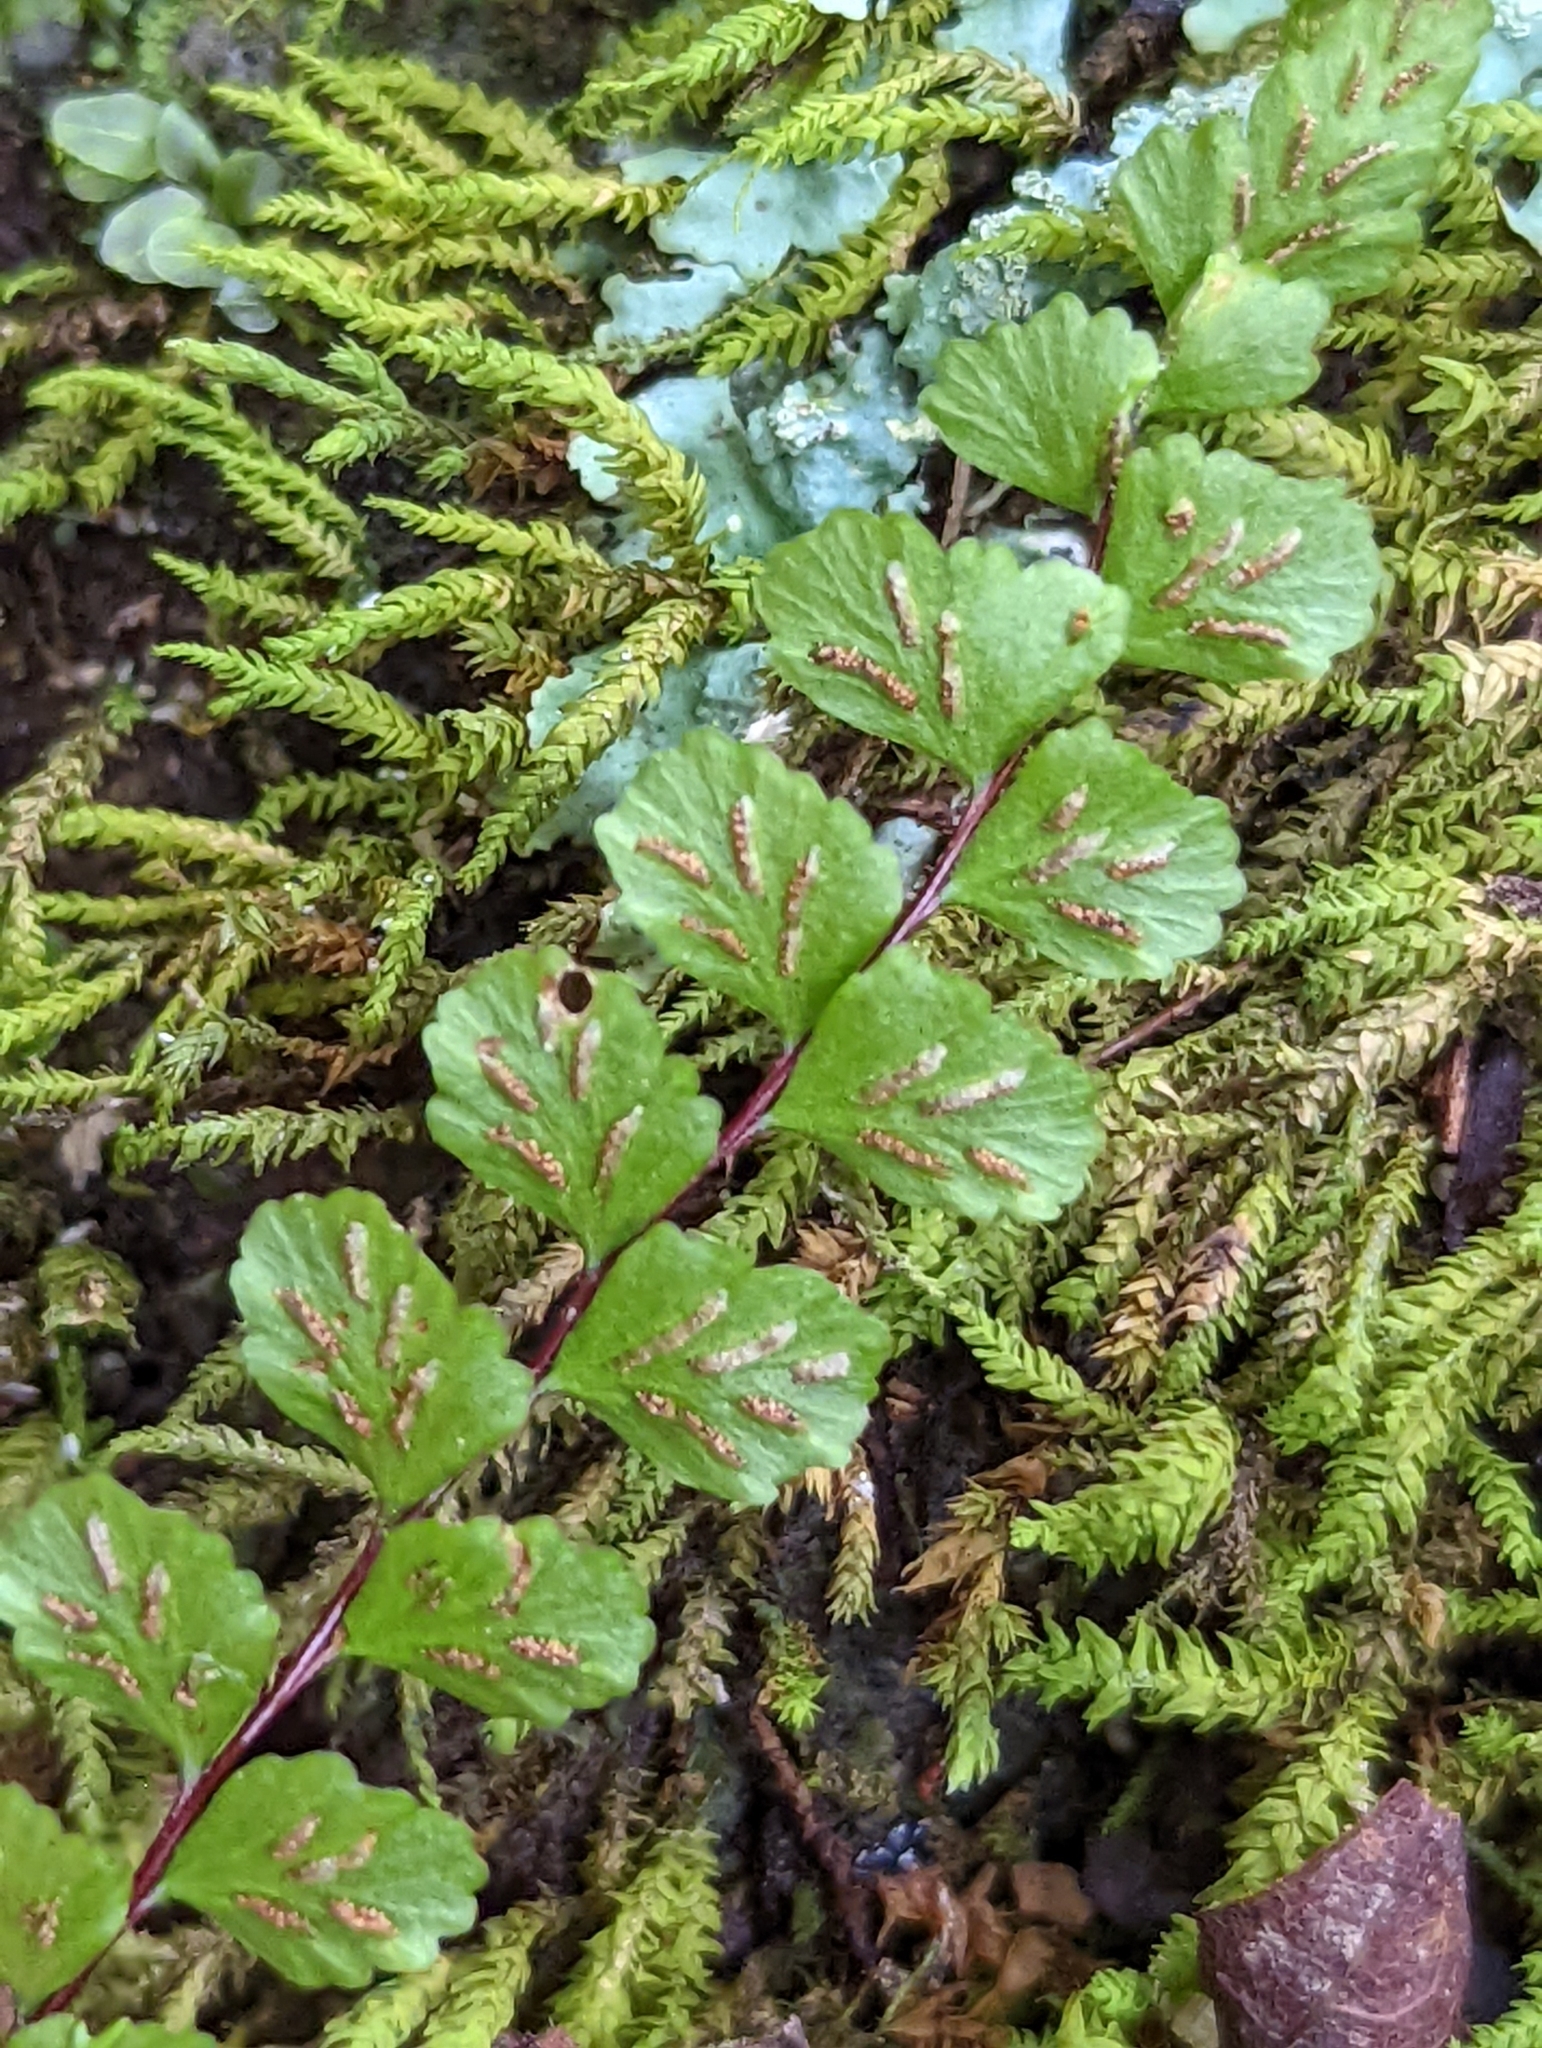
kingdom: Plantae
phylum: Tracheophyta
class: Polypodiopsida
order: Polypodiales
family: Aspleniaceae
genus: Asplenium
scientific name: Asplenium trichomanes
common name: Maidenhair spleenwort
